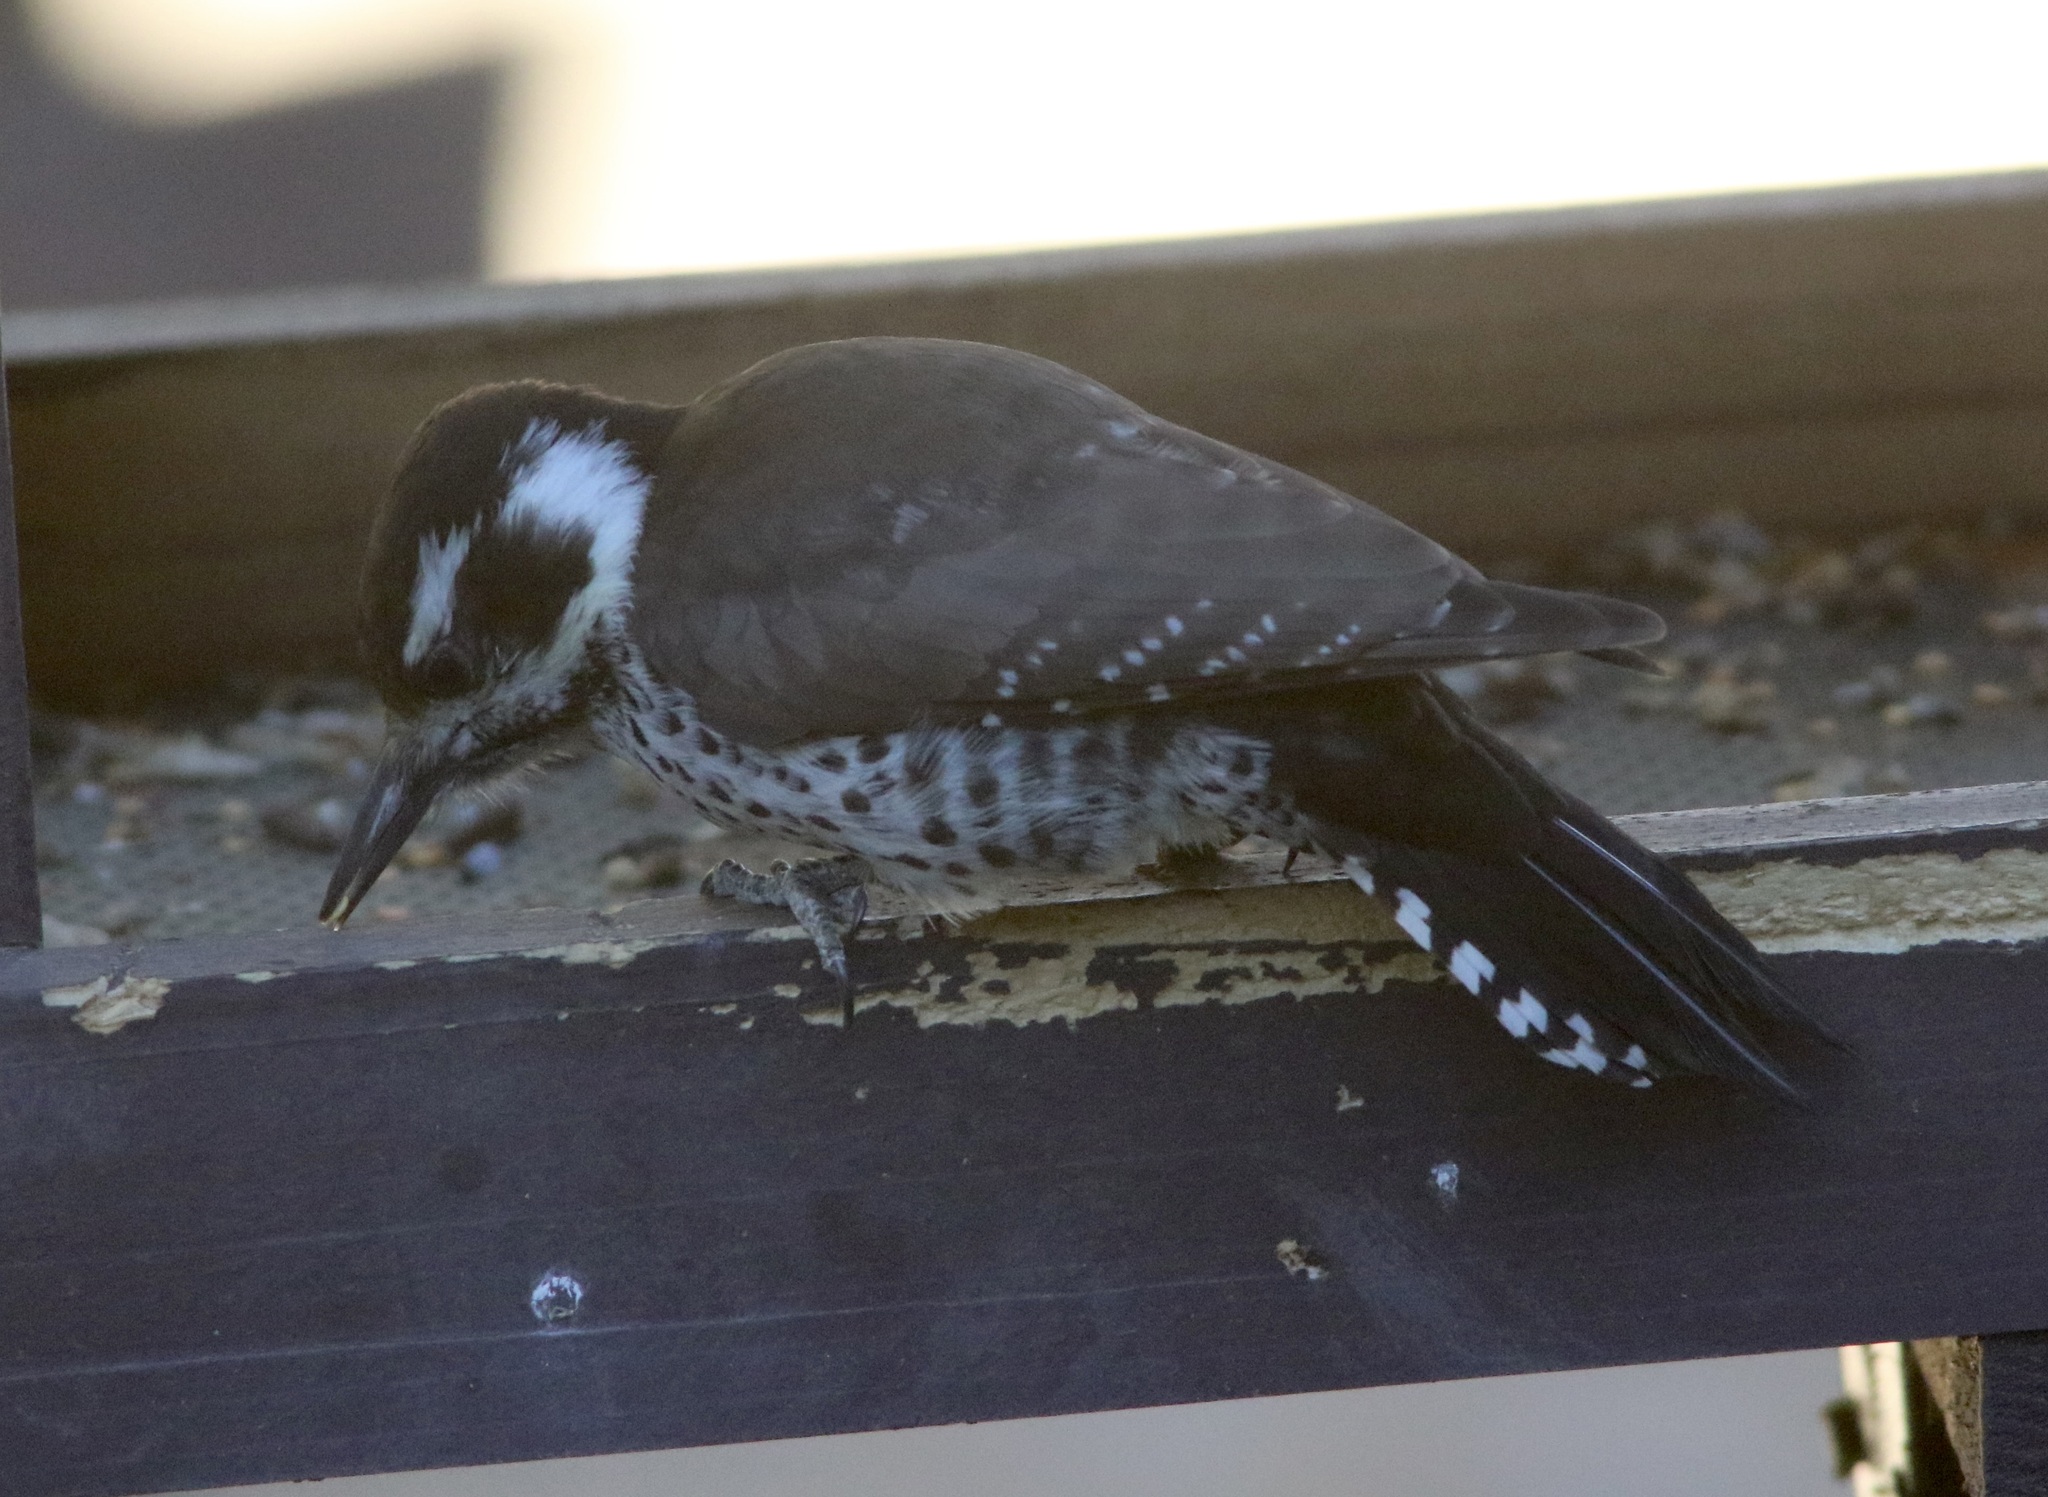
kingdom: Animalia
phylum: Chordata
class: Aves
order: Piciformes
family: Picidae
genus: Leuconotopicus
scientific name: Leuconotopicus arizonae
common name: Arizona woodpecker
